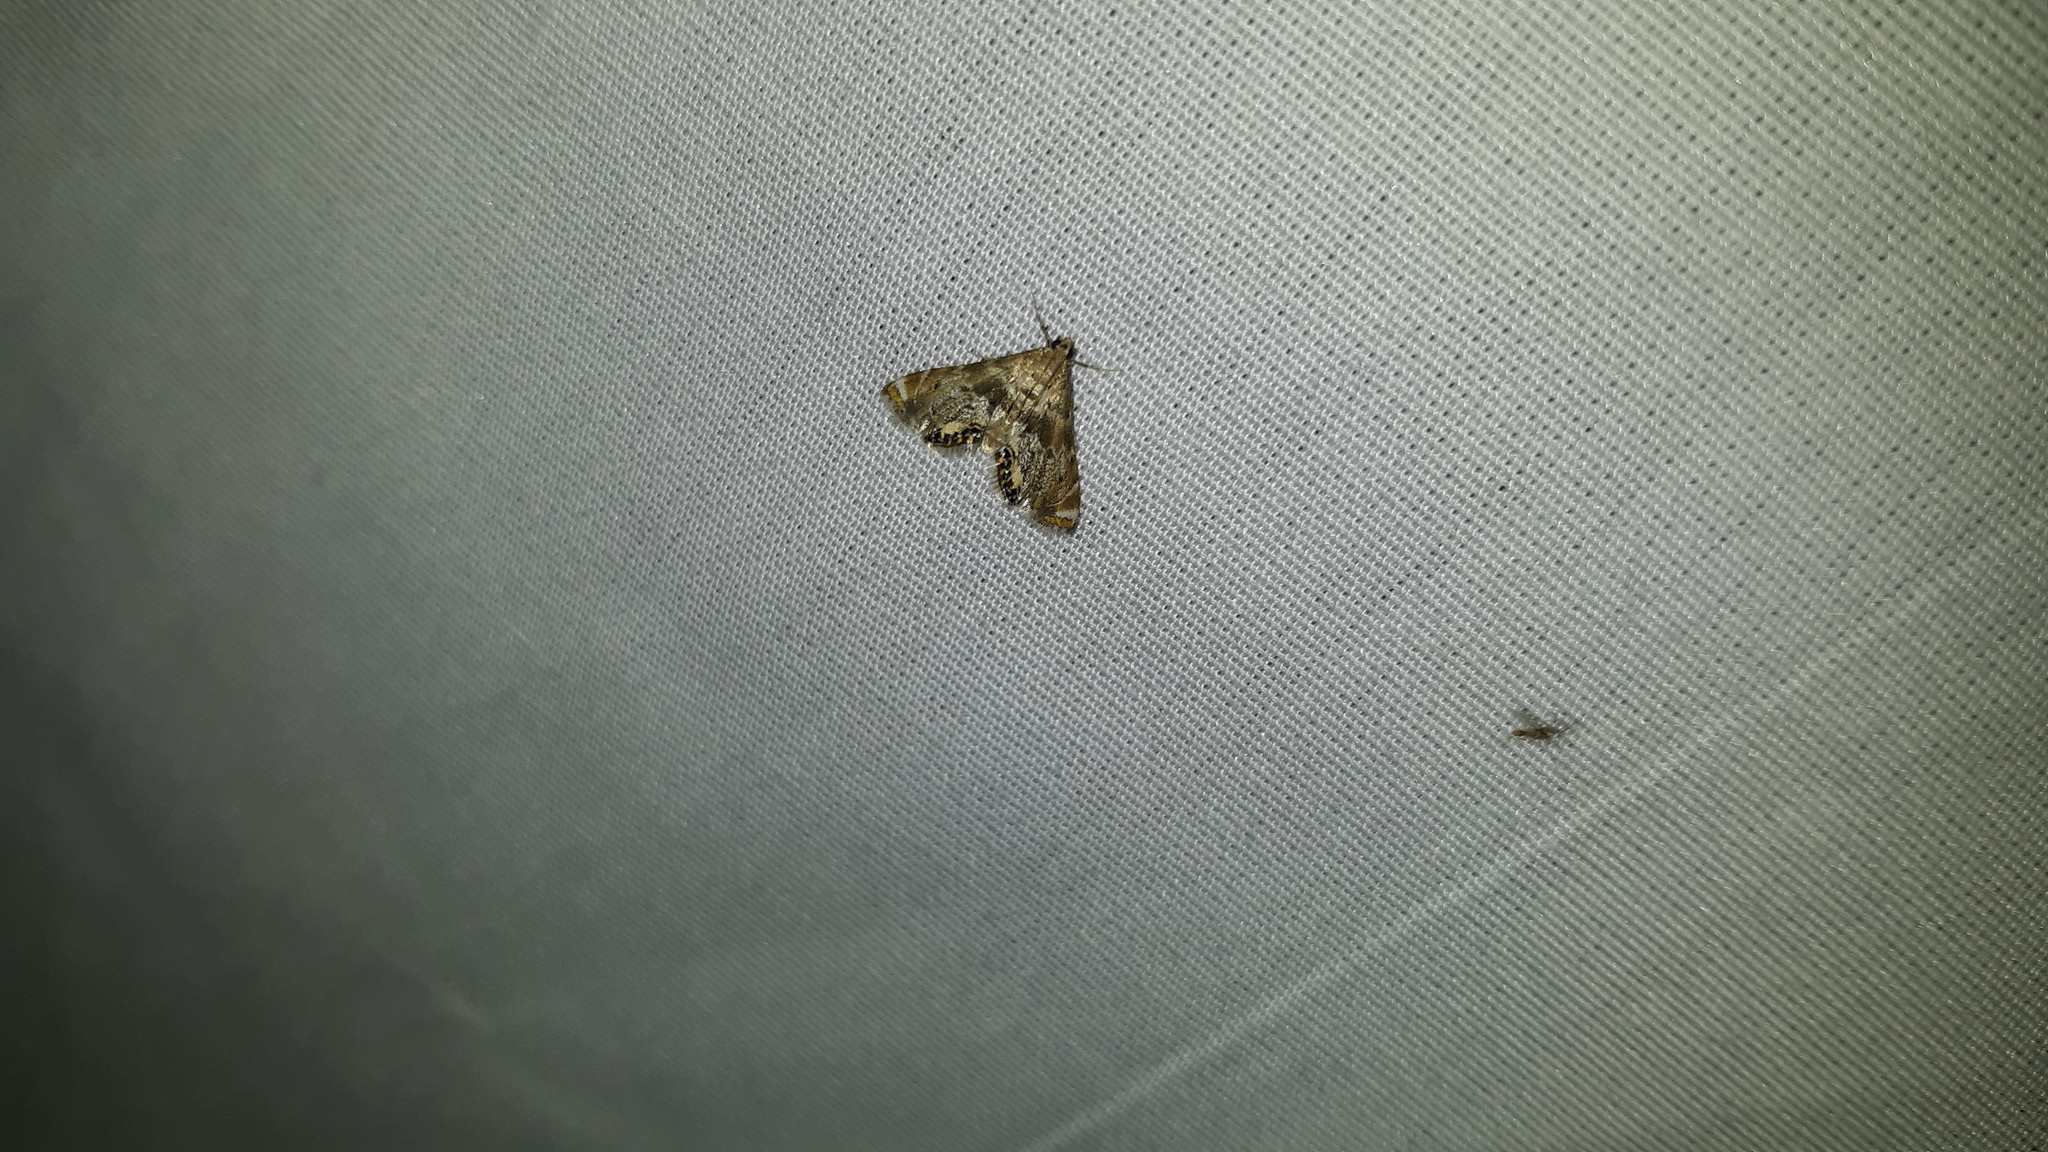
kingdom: Animalia
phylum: Arthropoda
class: Insecta
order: Lepidoptera
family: Crambidae
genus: Petrophila
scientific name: Petrophila fulicalis
